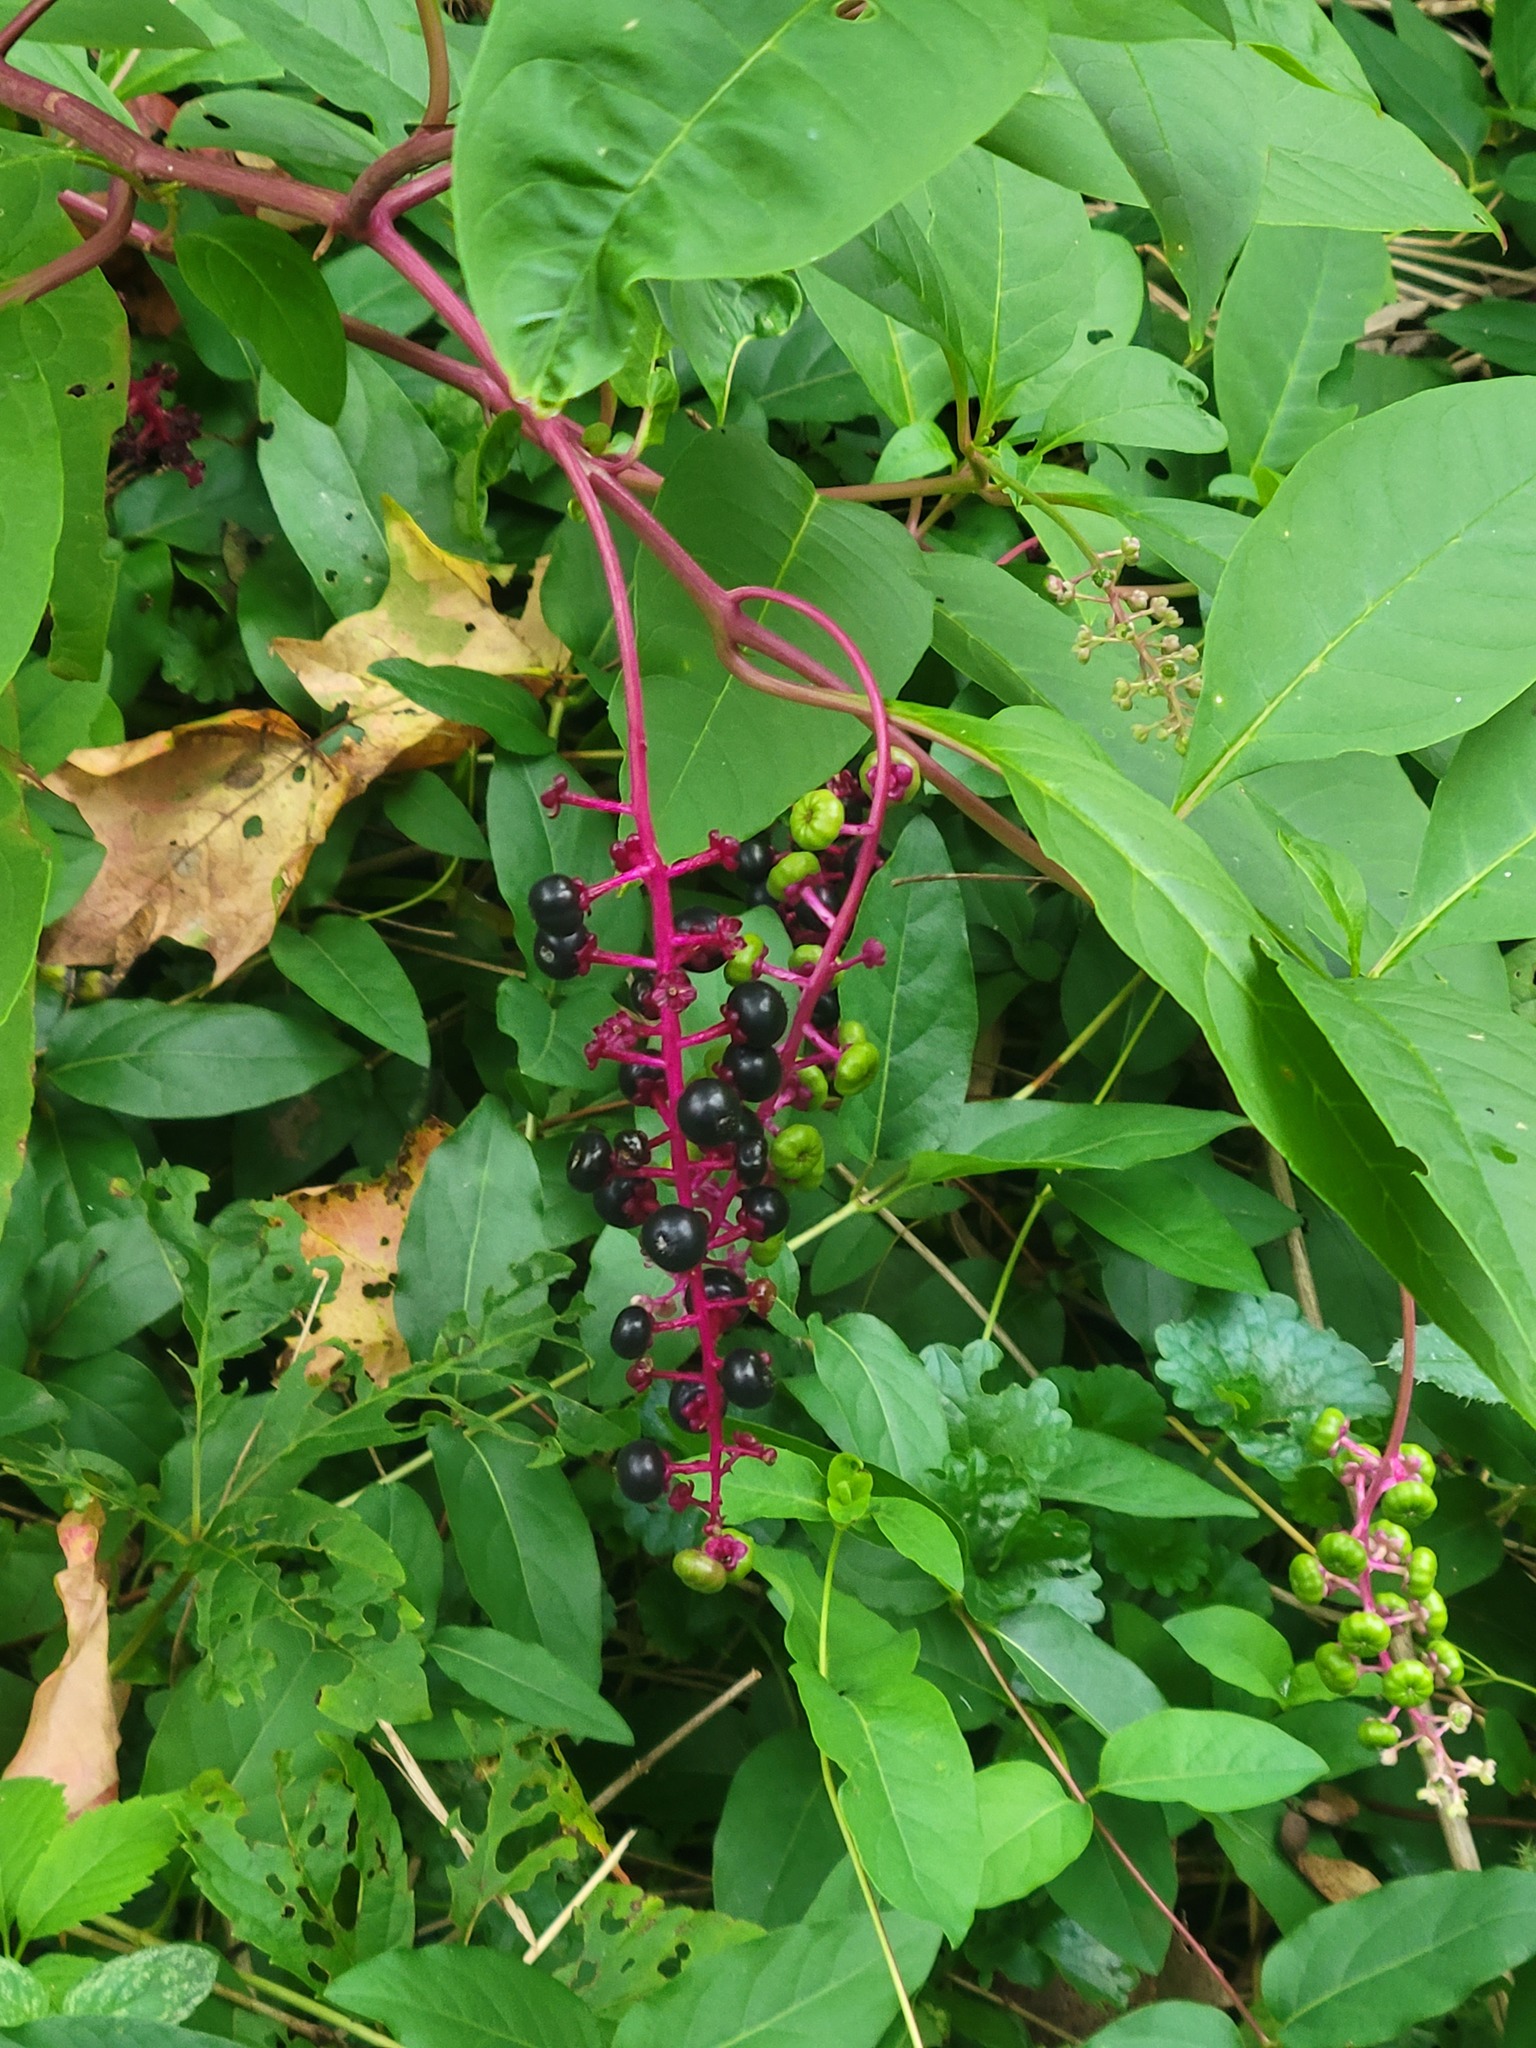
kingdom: Plantae
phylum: Tracheophyta
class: Magnoliopsida
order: Caryophyllales
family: Phytolaccaceae
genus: Phytolacca
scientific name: Phytolacca americana
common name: American pokeweed
